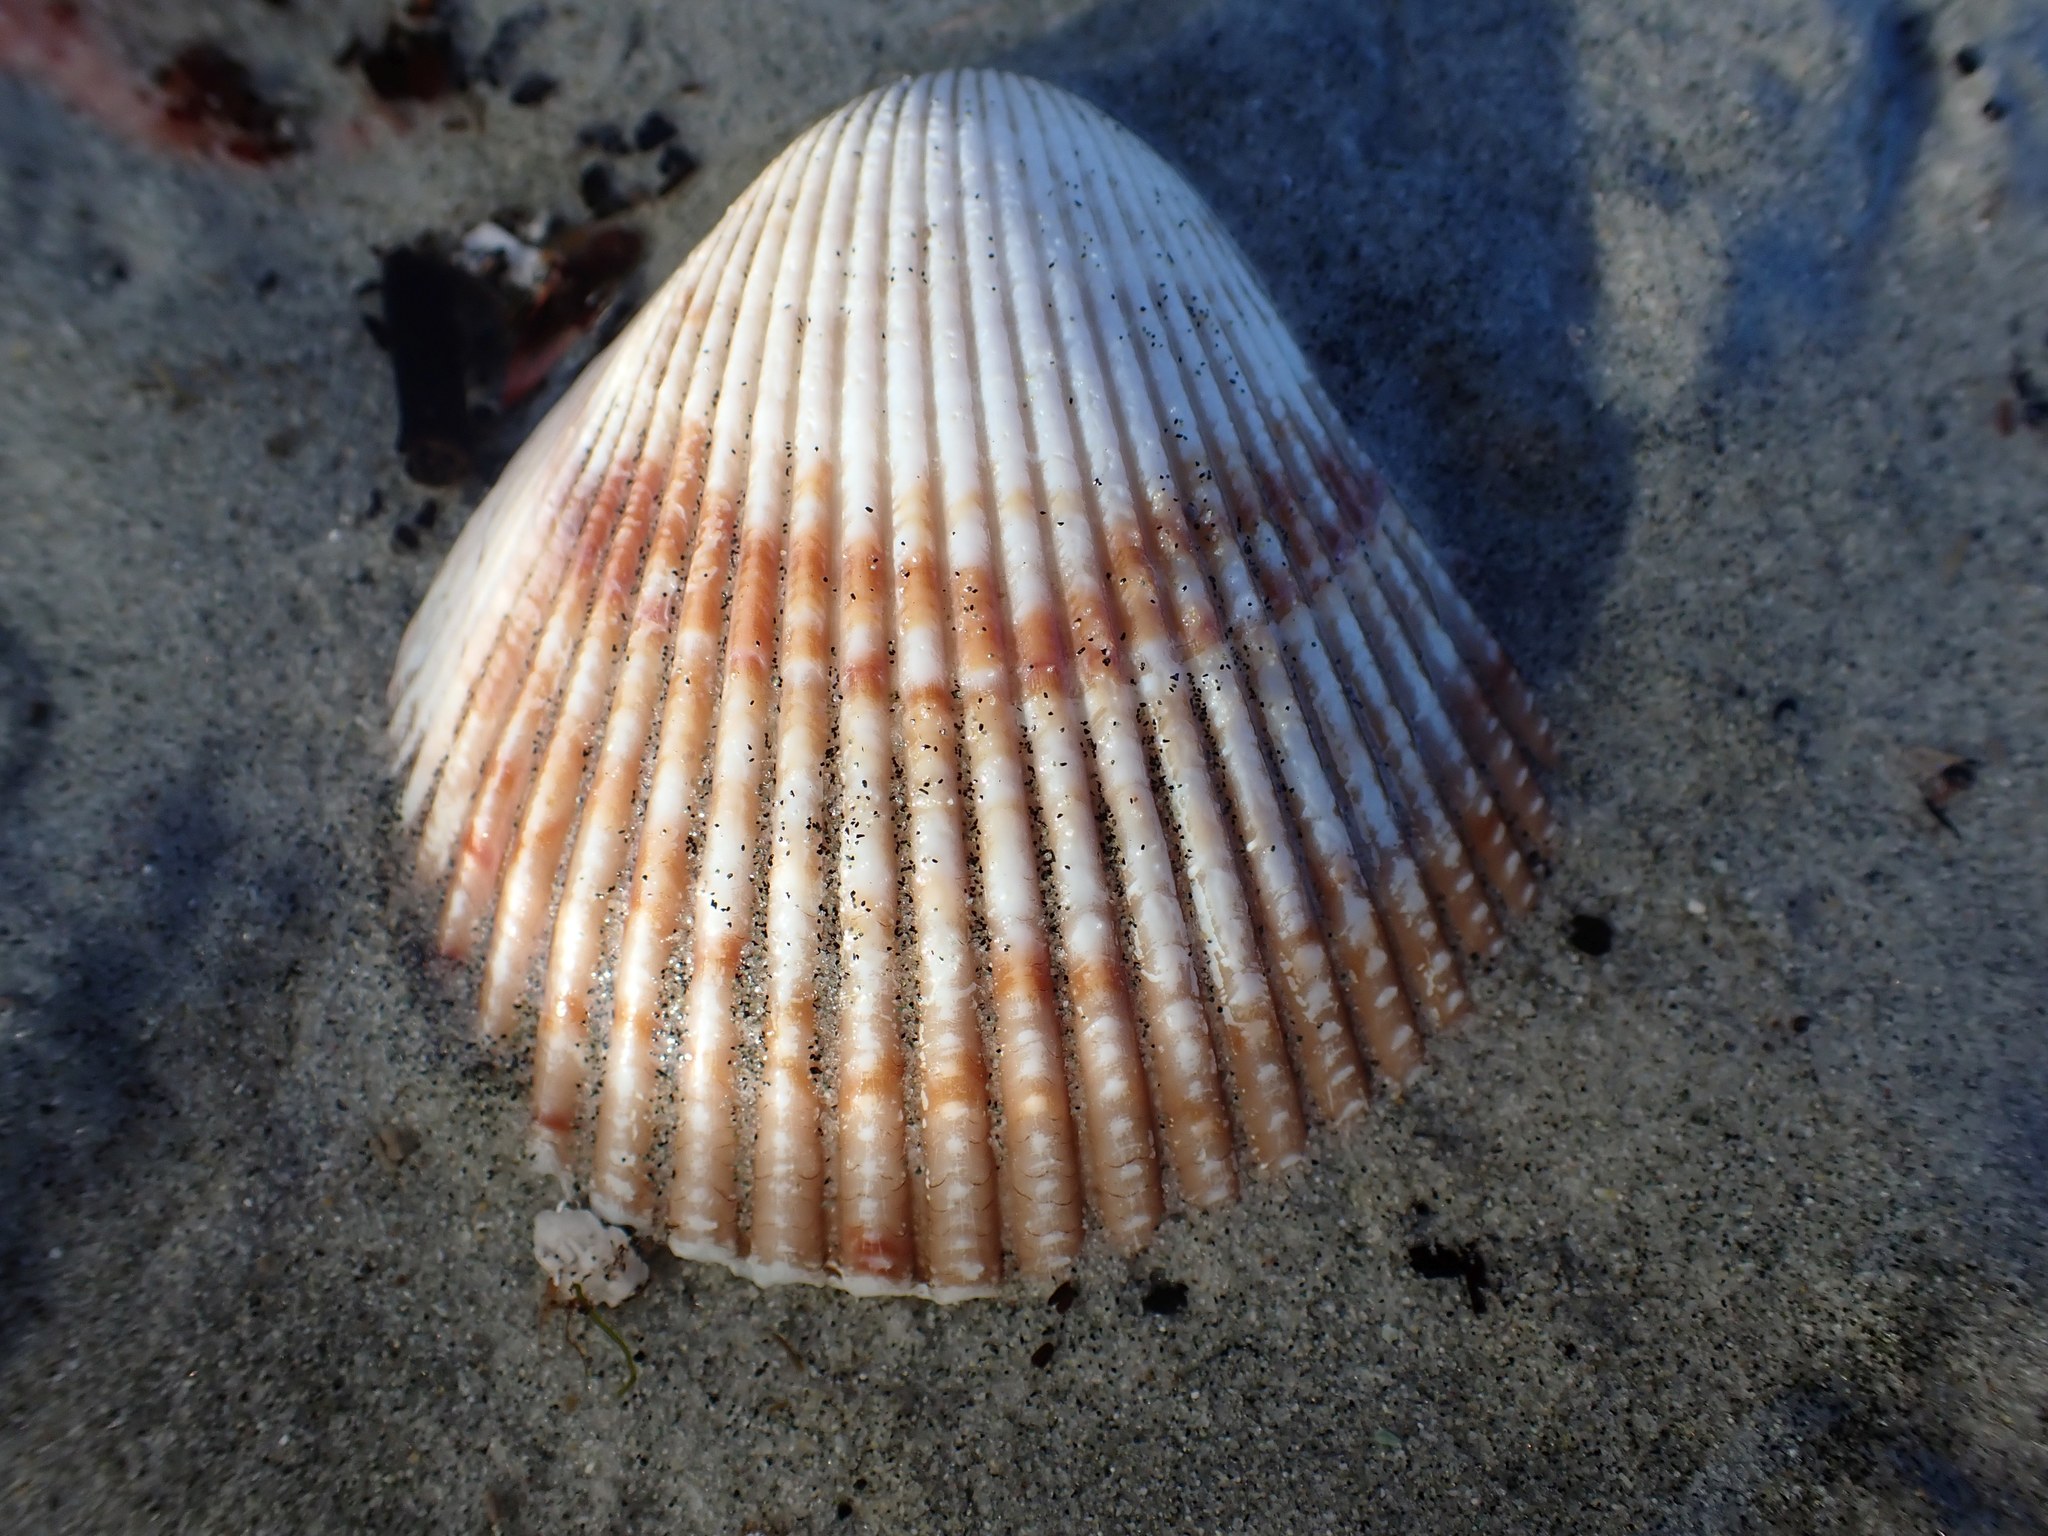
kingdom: Animalia
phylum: Mollusca
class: Bivalvia
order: Cardiida
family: Cardiidae
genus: Clinocardium
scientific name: Clinocardium nuttallii
